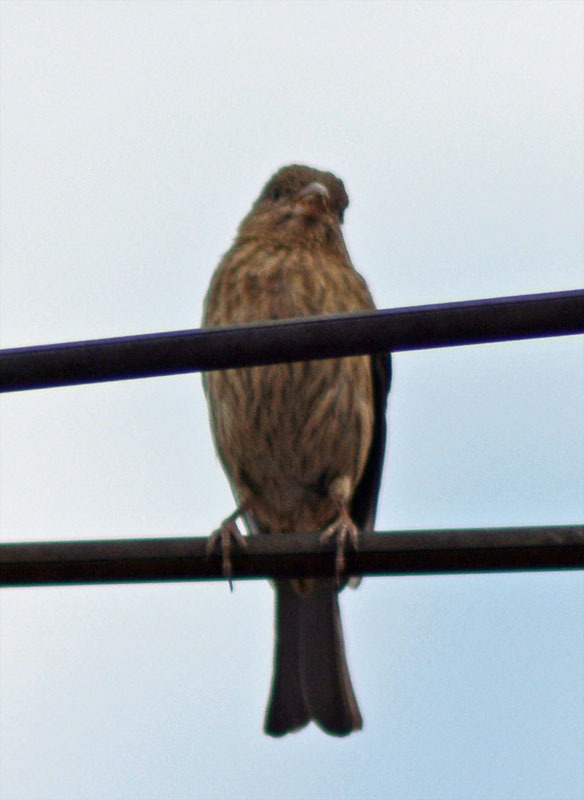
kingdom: Animalia
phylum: Chordata
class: Aves
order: Passeriformes
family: Fringillidae
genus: Haemorhous
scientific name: Haemorhous mexicanus
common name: House finch
